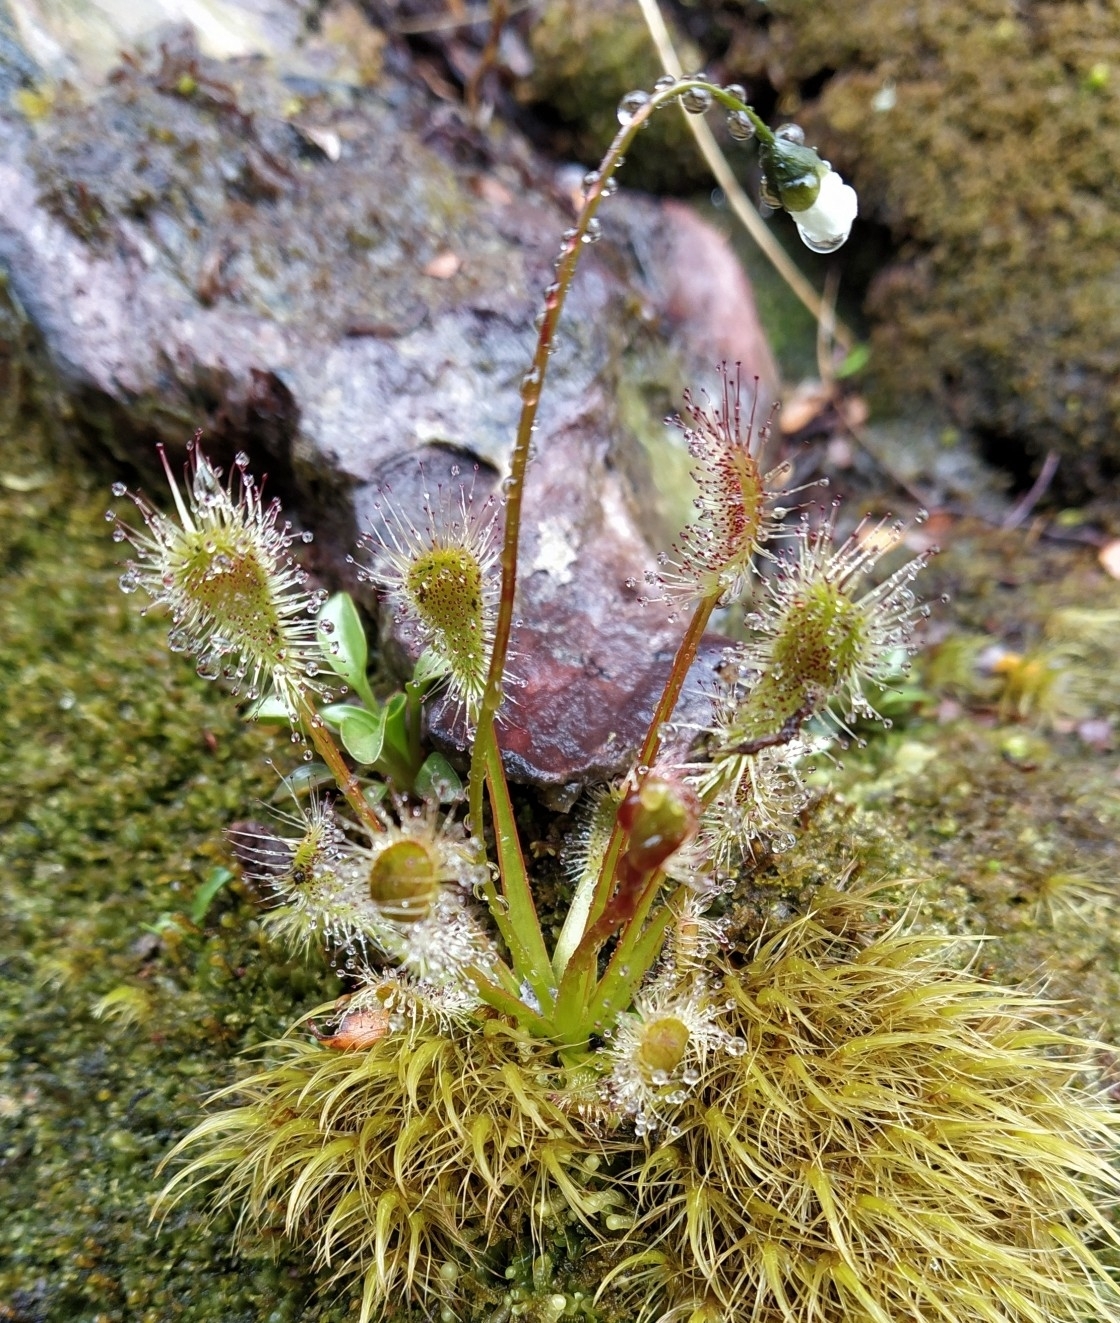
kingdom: Plantae
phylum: Tracheophyta
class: Magnoliopsida
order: Caryophyllales
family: Droseraceae
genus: Drosera
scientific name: Drosera stenopetala
